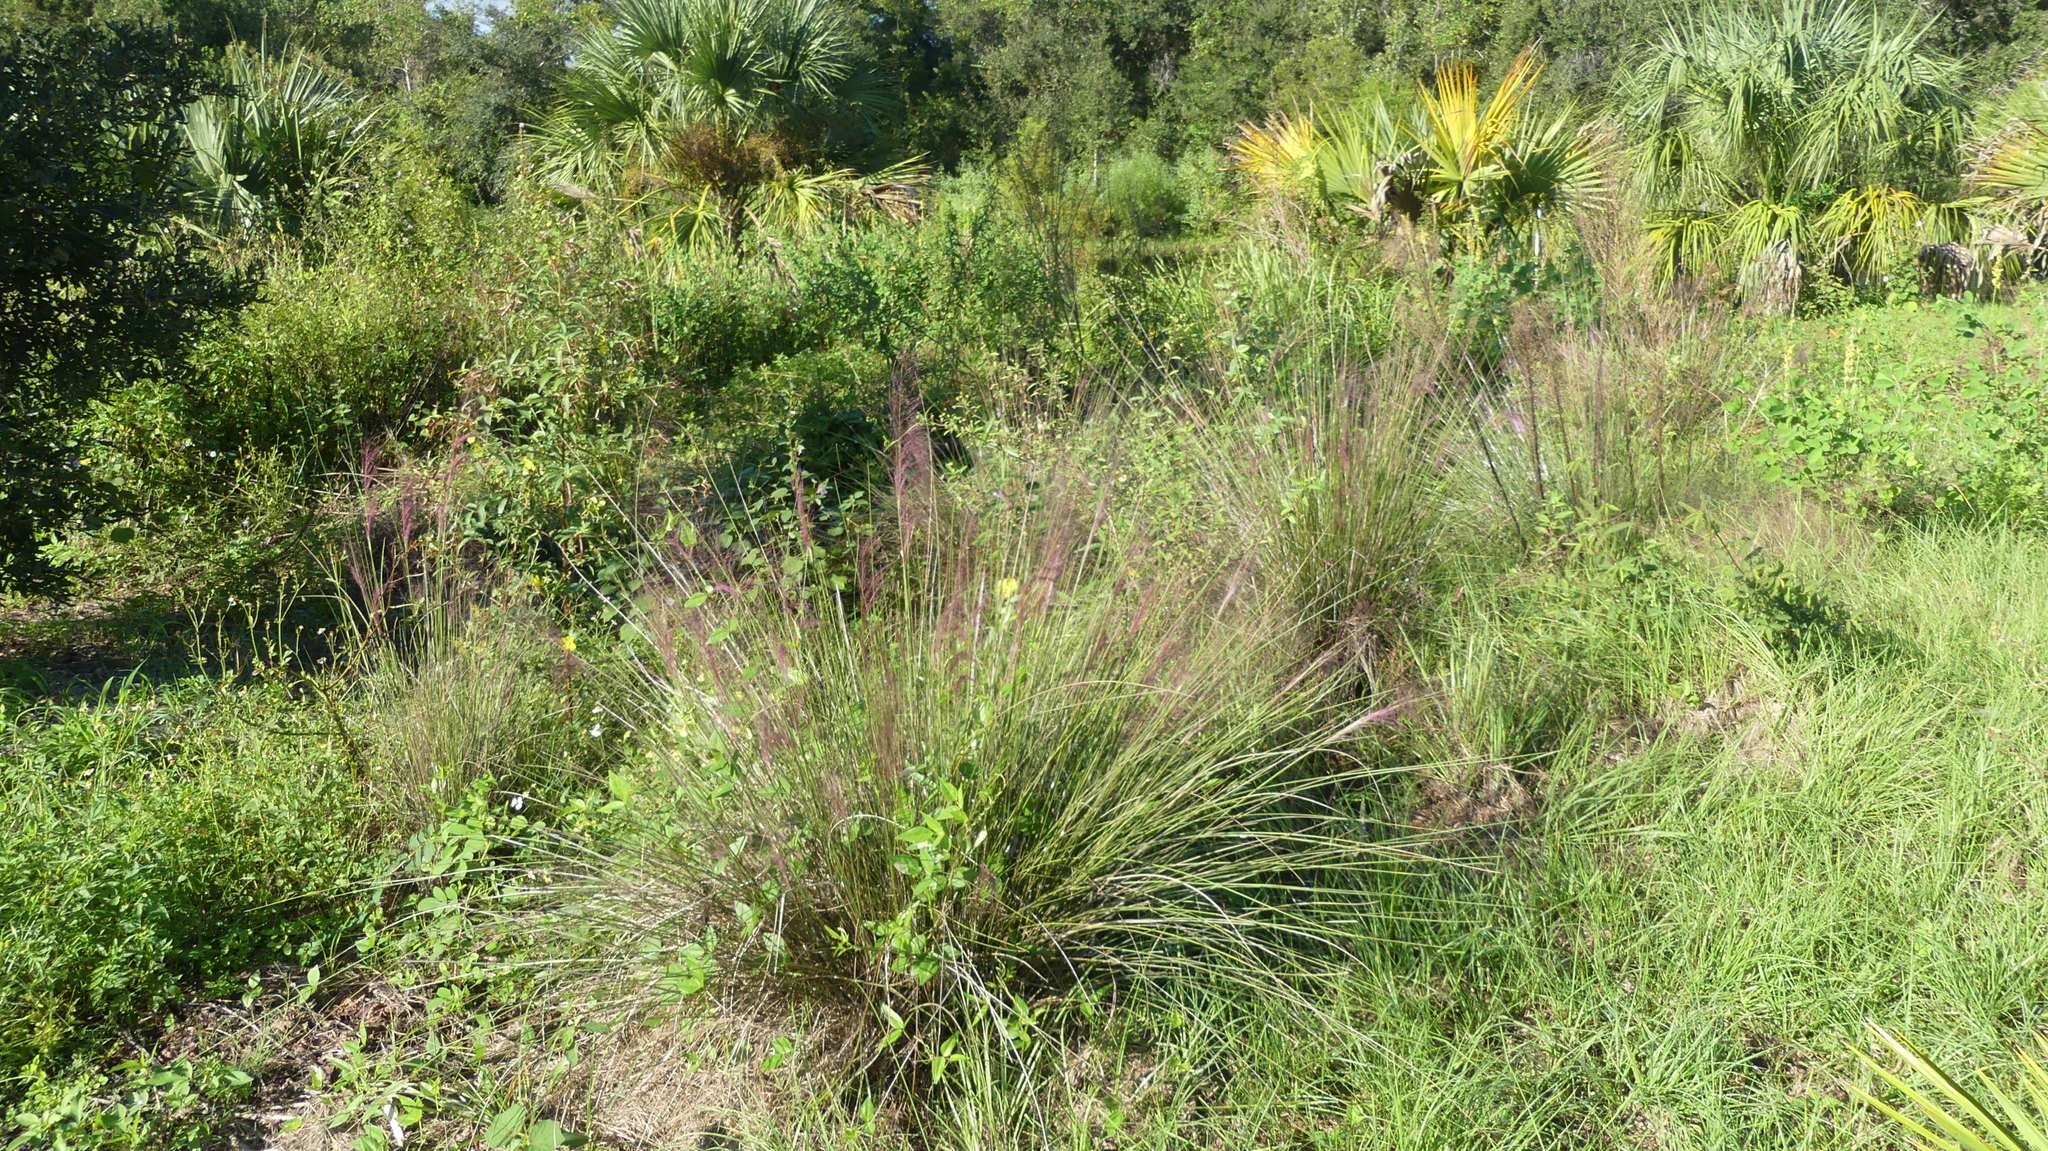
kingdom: Plantae
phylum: Tracheophyta
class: Liliopsida
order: Poales
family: Poaceae
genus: Muhlenbergia
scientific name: Muhlenbergia capillaris
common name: Purple grass
